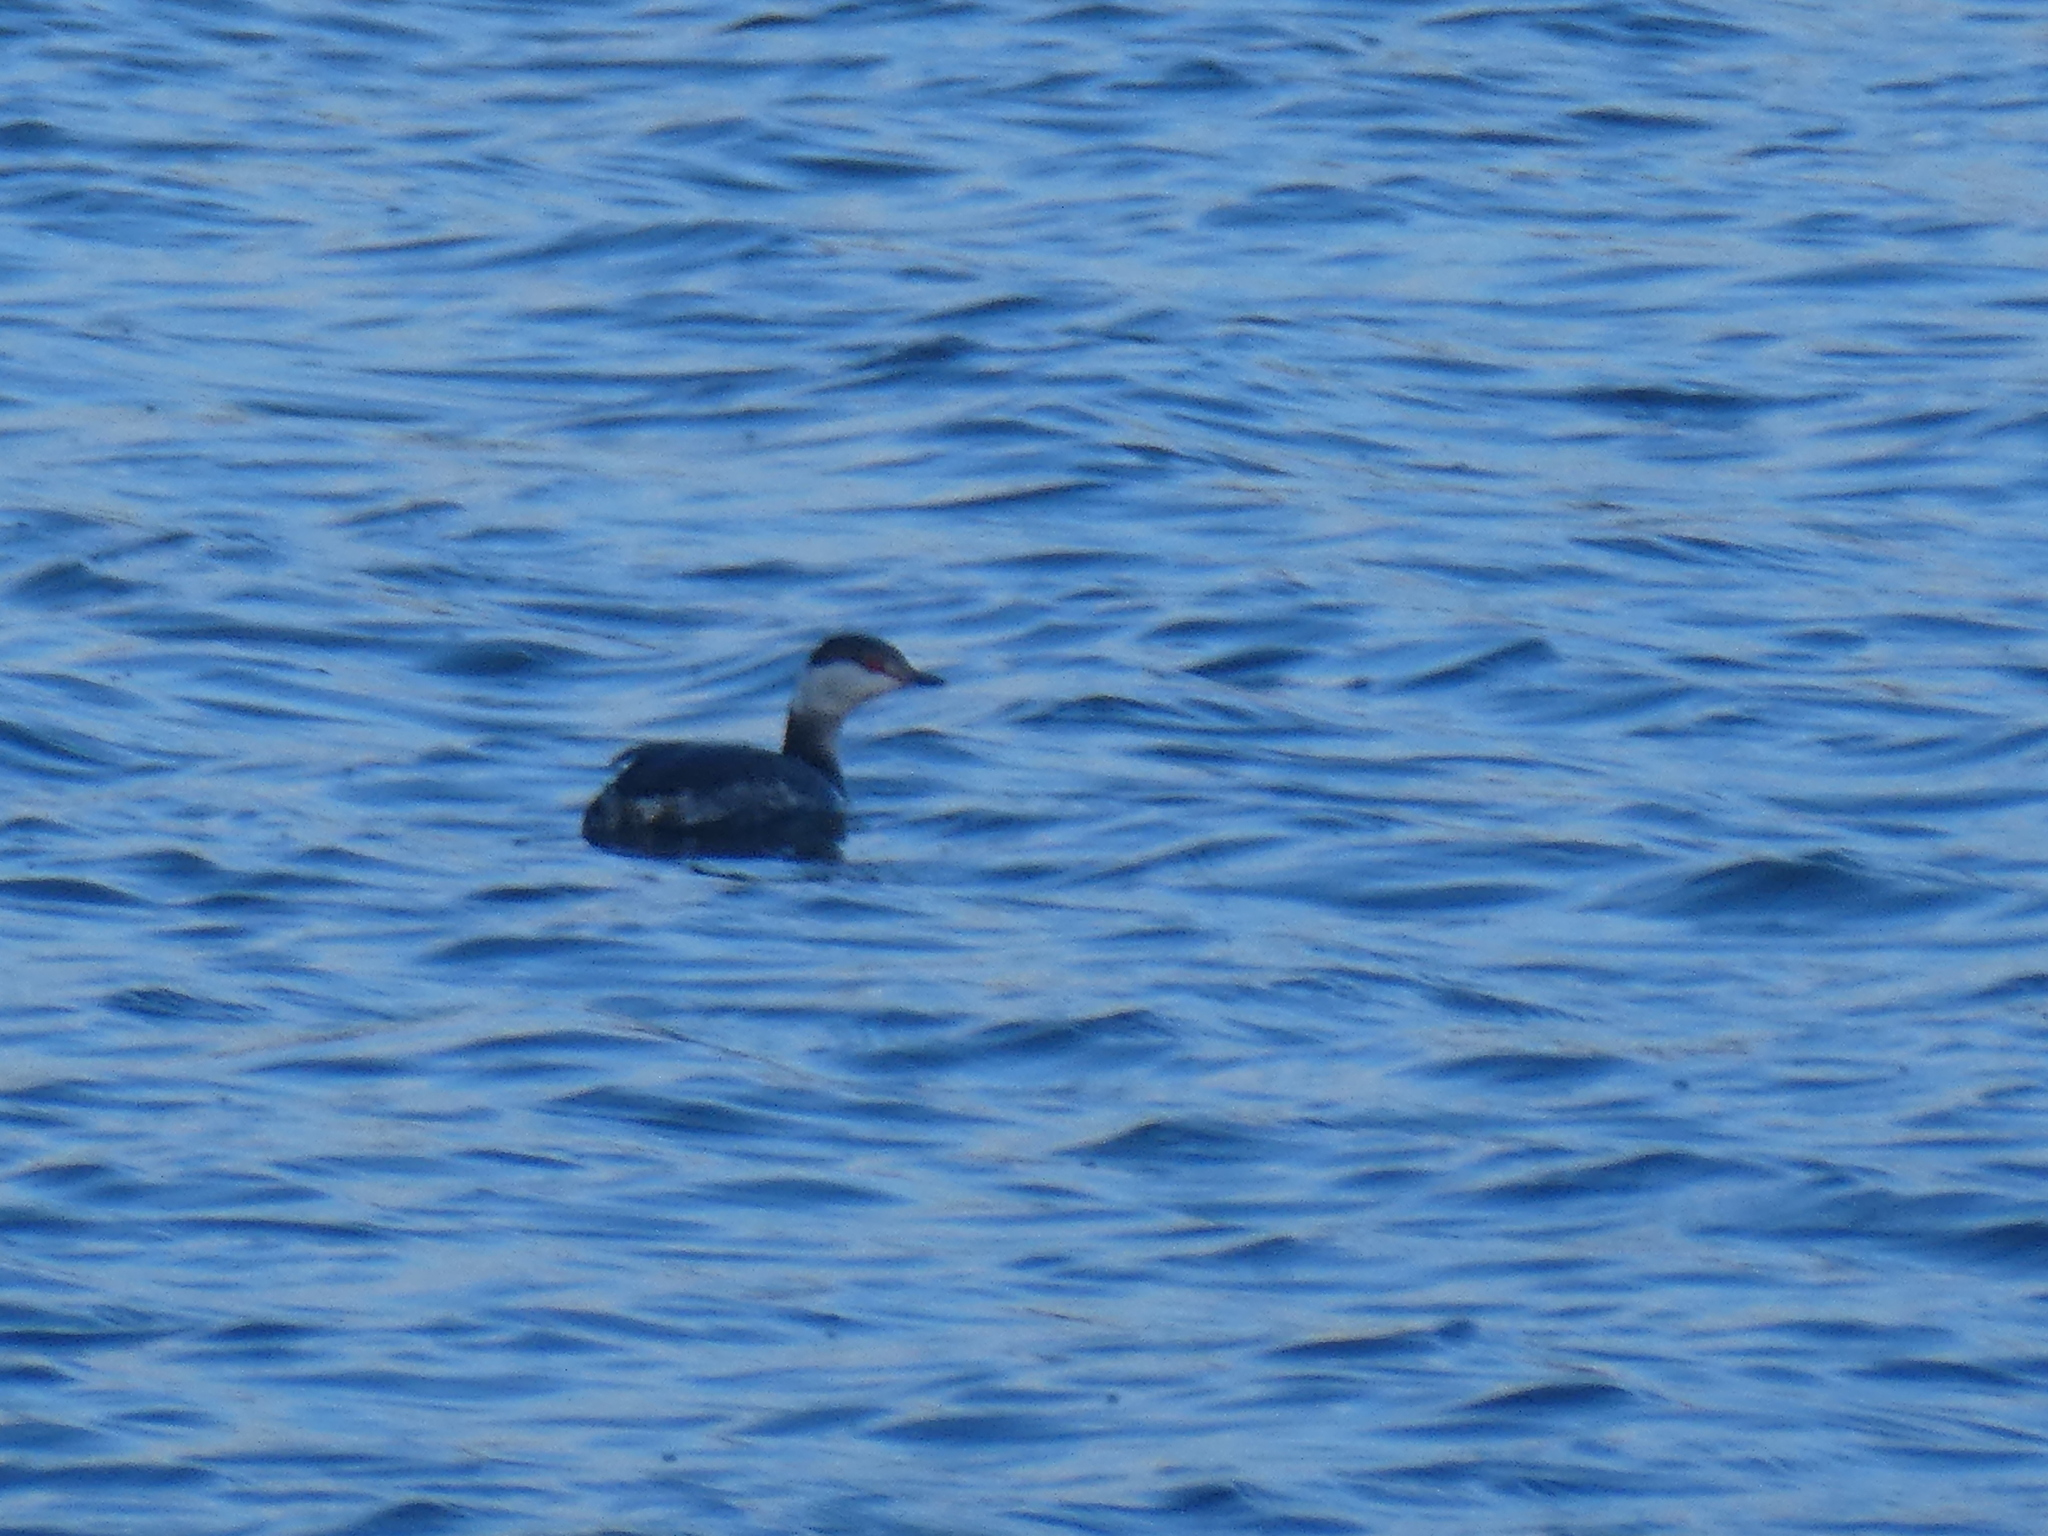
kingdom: Animalia
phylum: Chordata
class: Aves
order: Podicipediformes
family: Podicipedidae
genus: Podiceps
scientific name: Podiceps auritus
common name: Horned grebe
